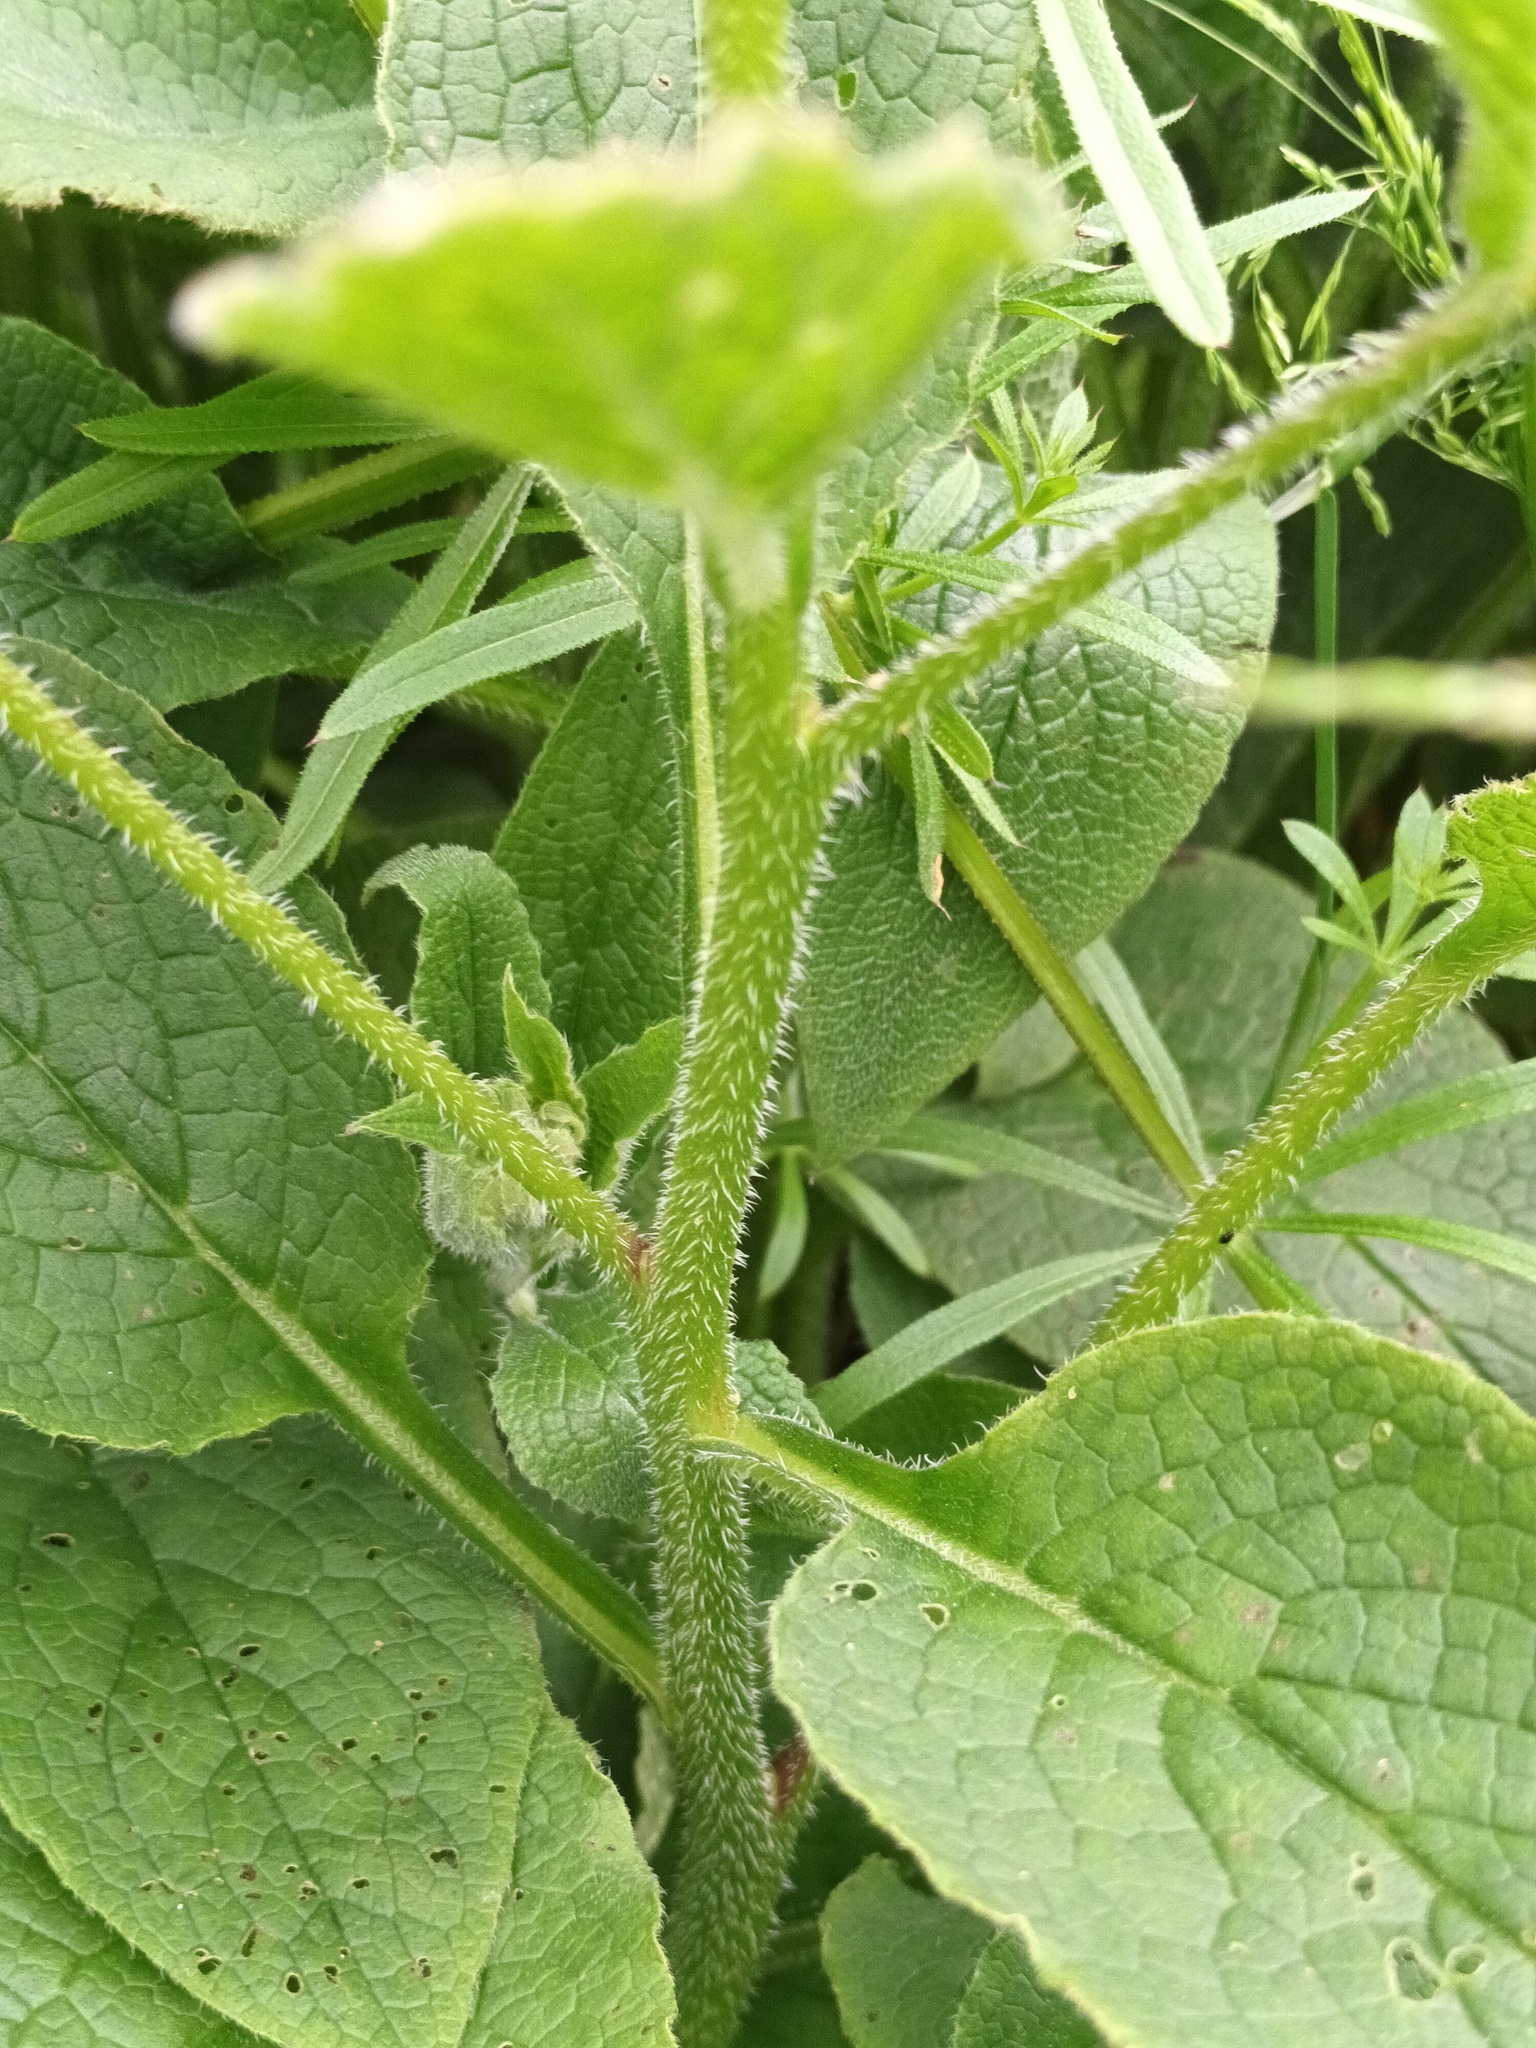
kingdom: Plantae
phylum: Tracheophyta
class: Magnoliopsida
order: Boraginales
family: Boraginaceae
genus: Symphytum
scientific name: Symphytum uplandicum
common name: Russian comfrey
